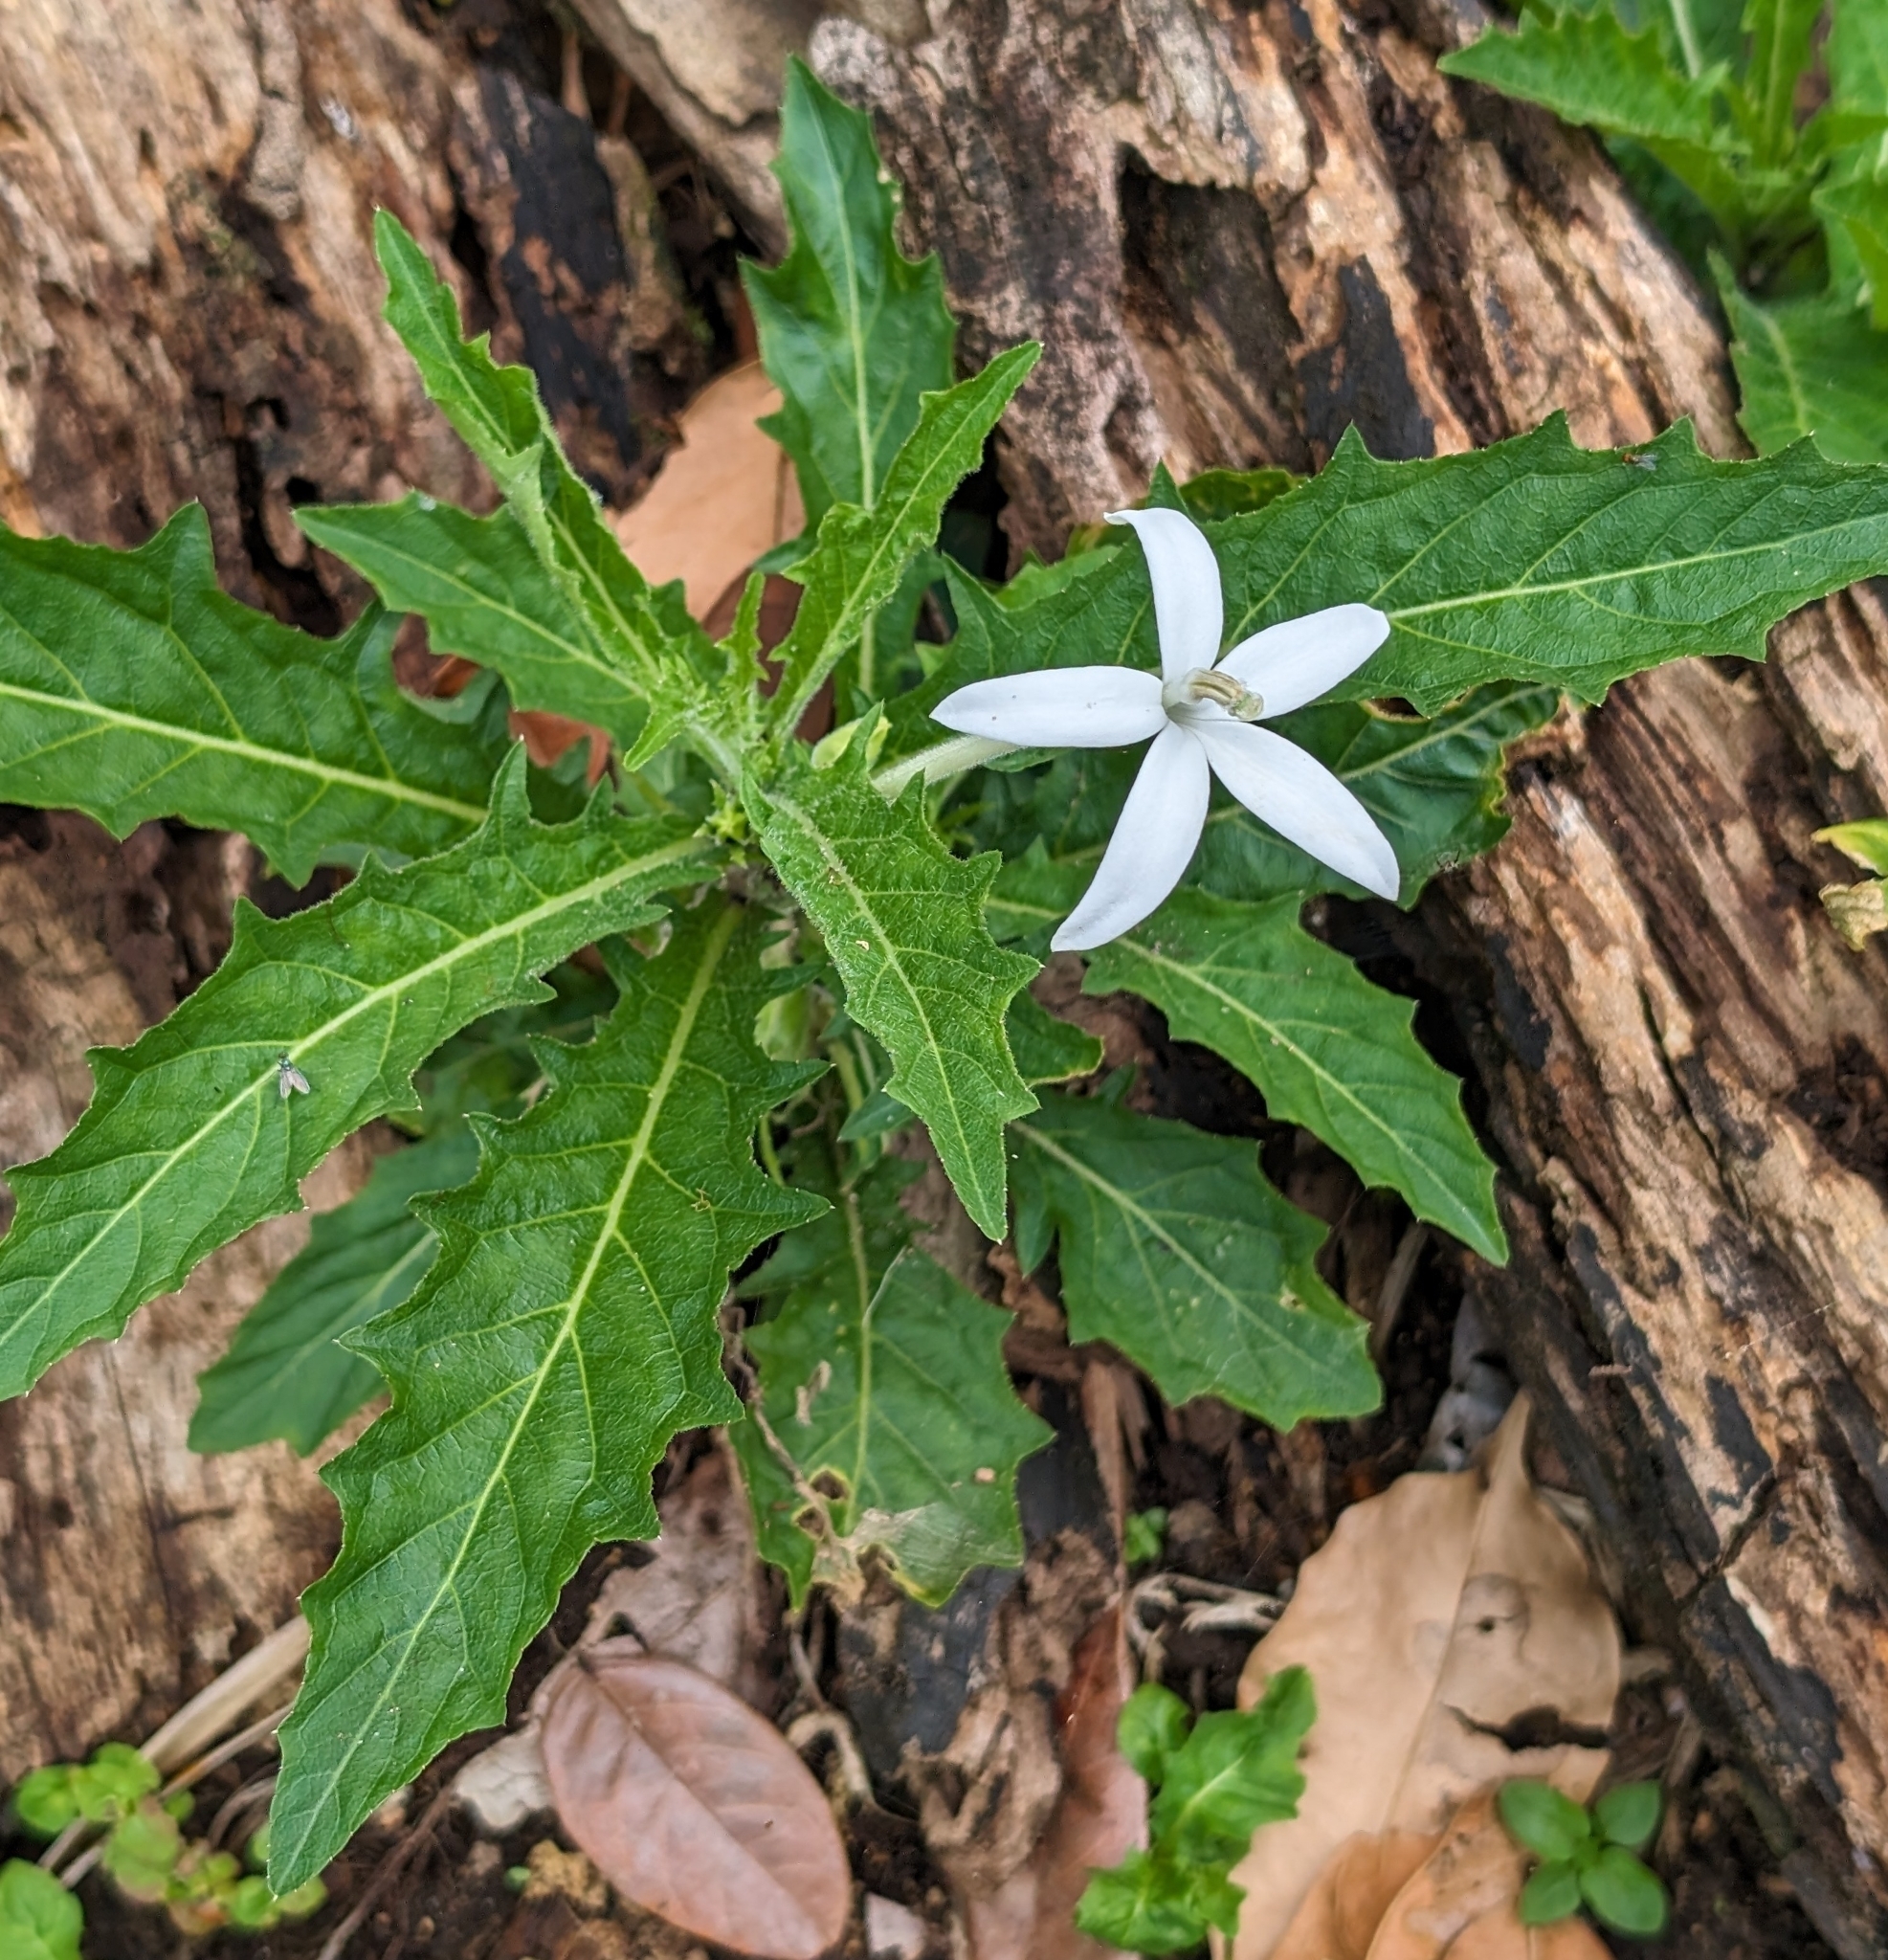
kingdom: Plantae
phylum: Tracheophyta
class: Magnoliopsida
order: Asterales
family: Campanulaceae
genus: Hippobroma
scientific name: Hippobroma longiflora
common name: Madamfate
